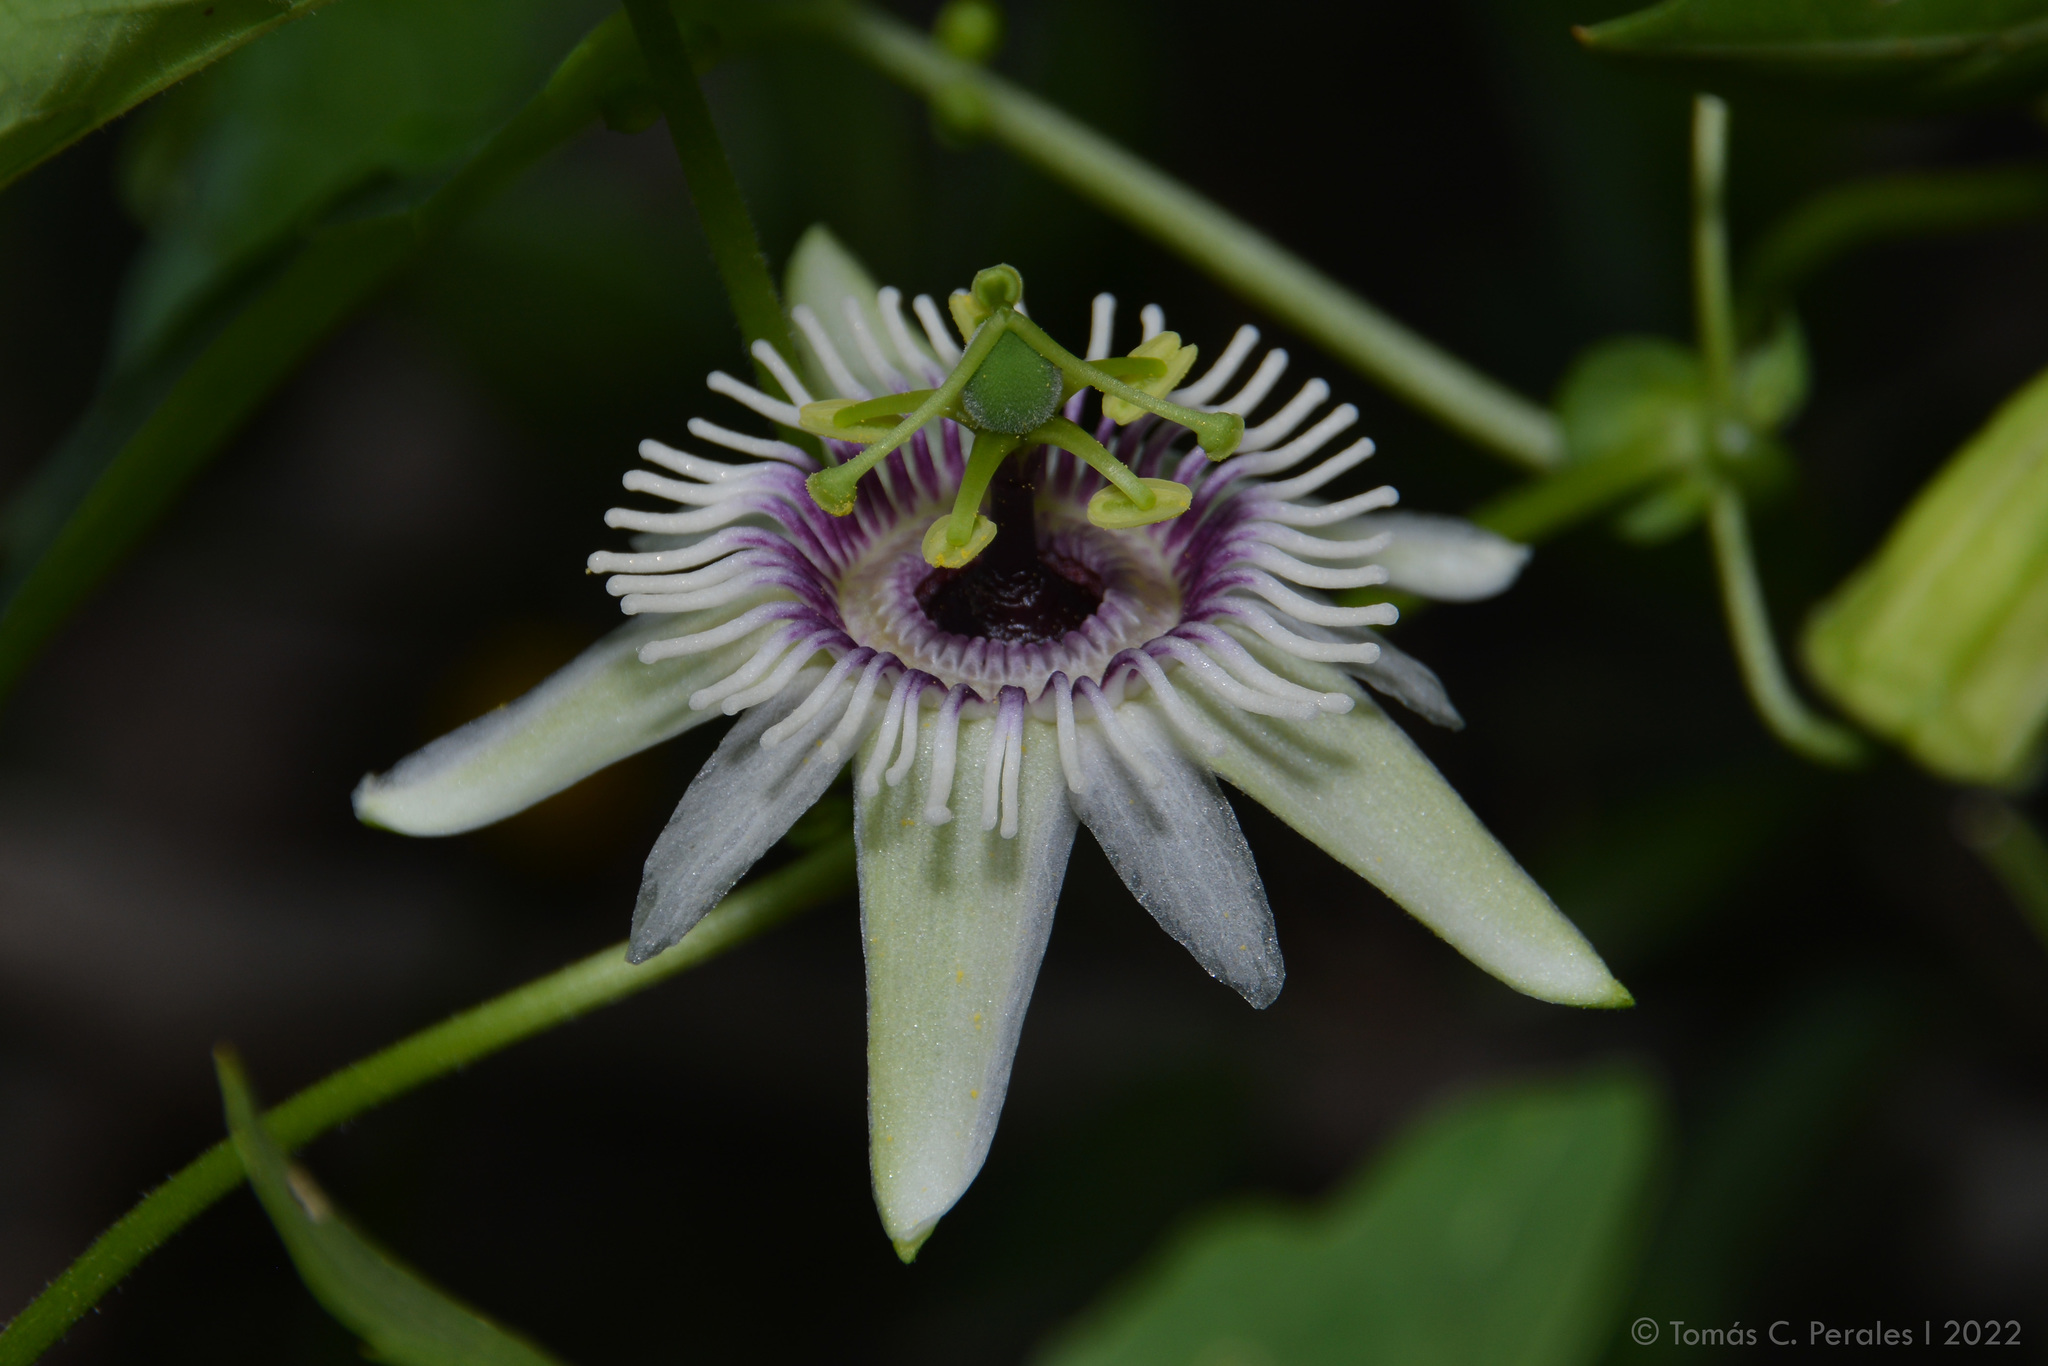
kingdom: Plantae
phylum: Tracheophyta
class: Magnoliopsida
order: Malpighiales
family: Passifloraceae
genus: Passiflora
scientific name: Passiflora morifolia
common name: Woodland passionflower
